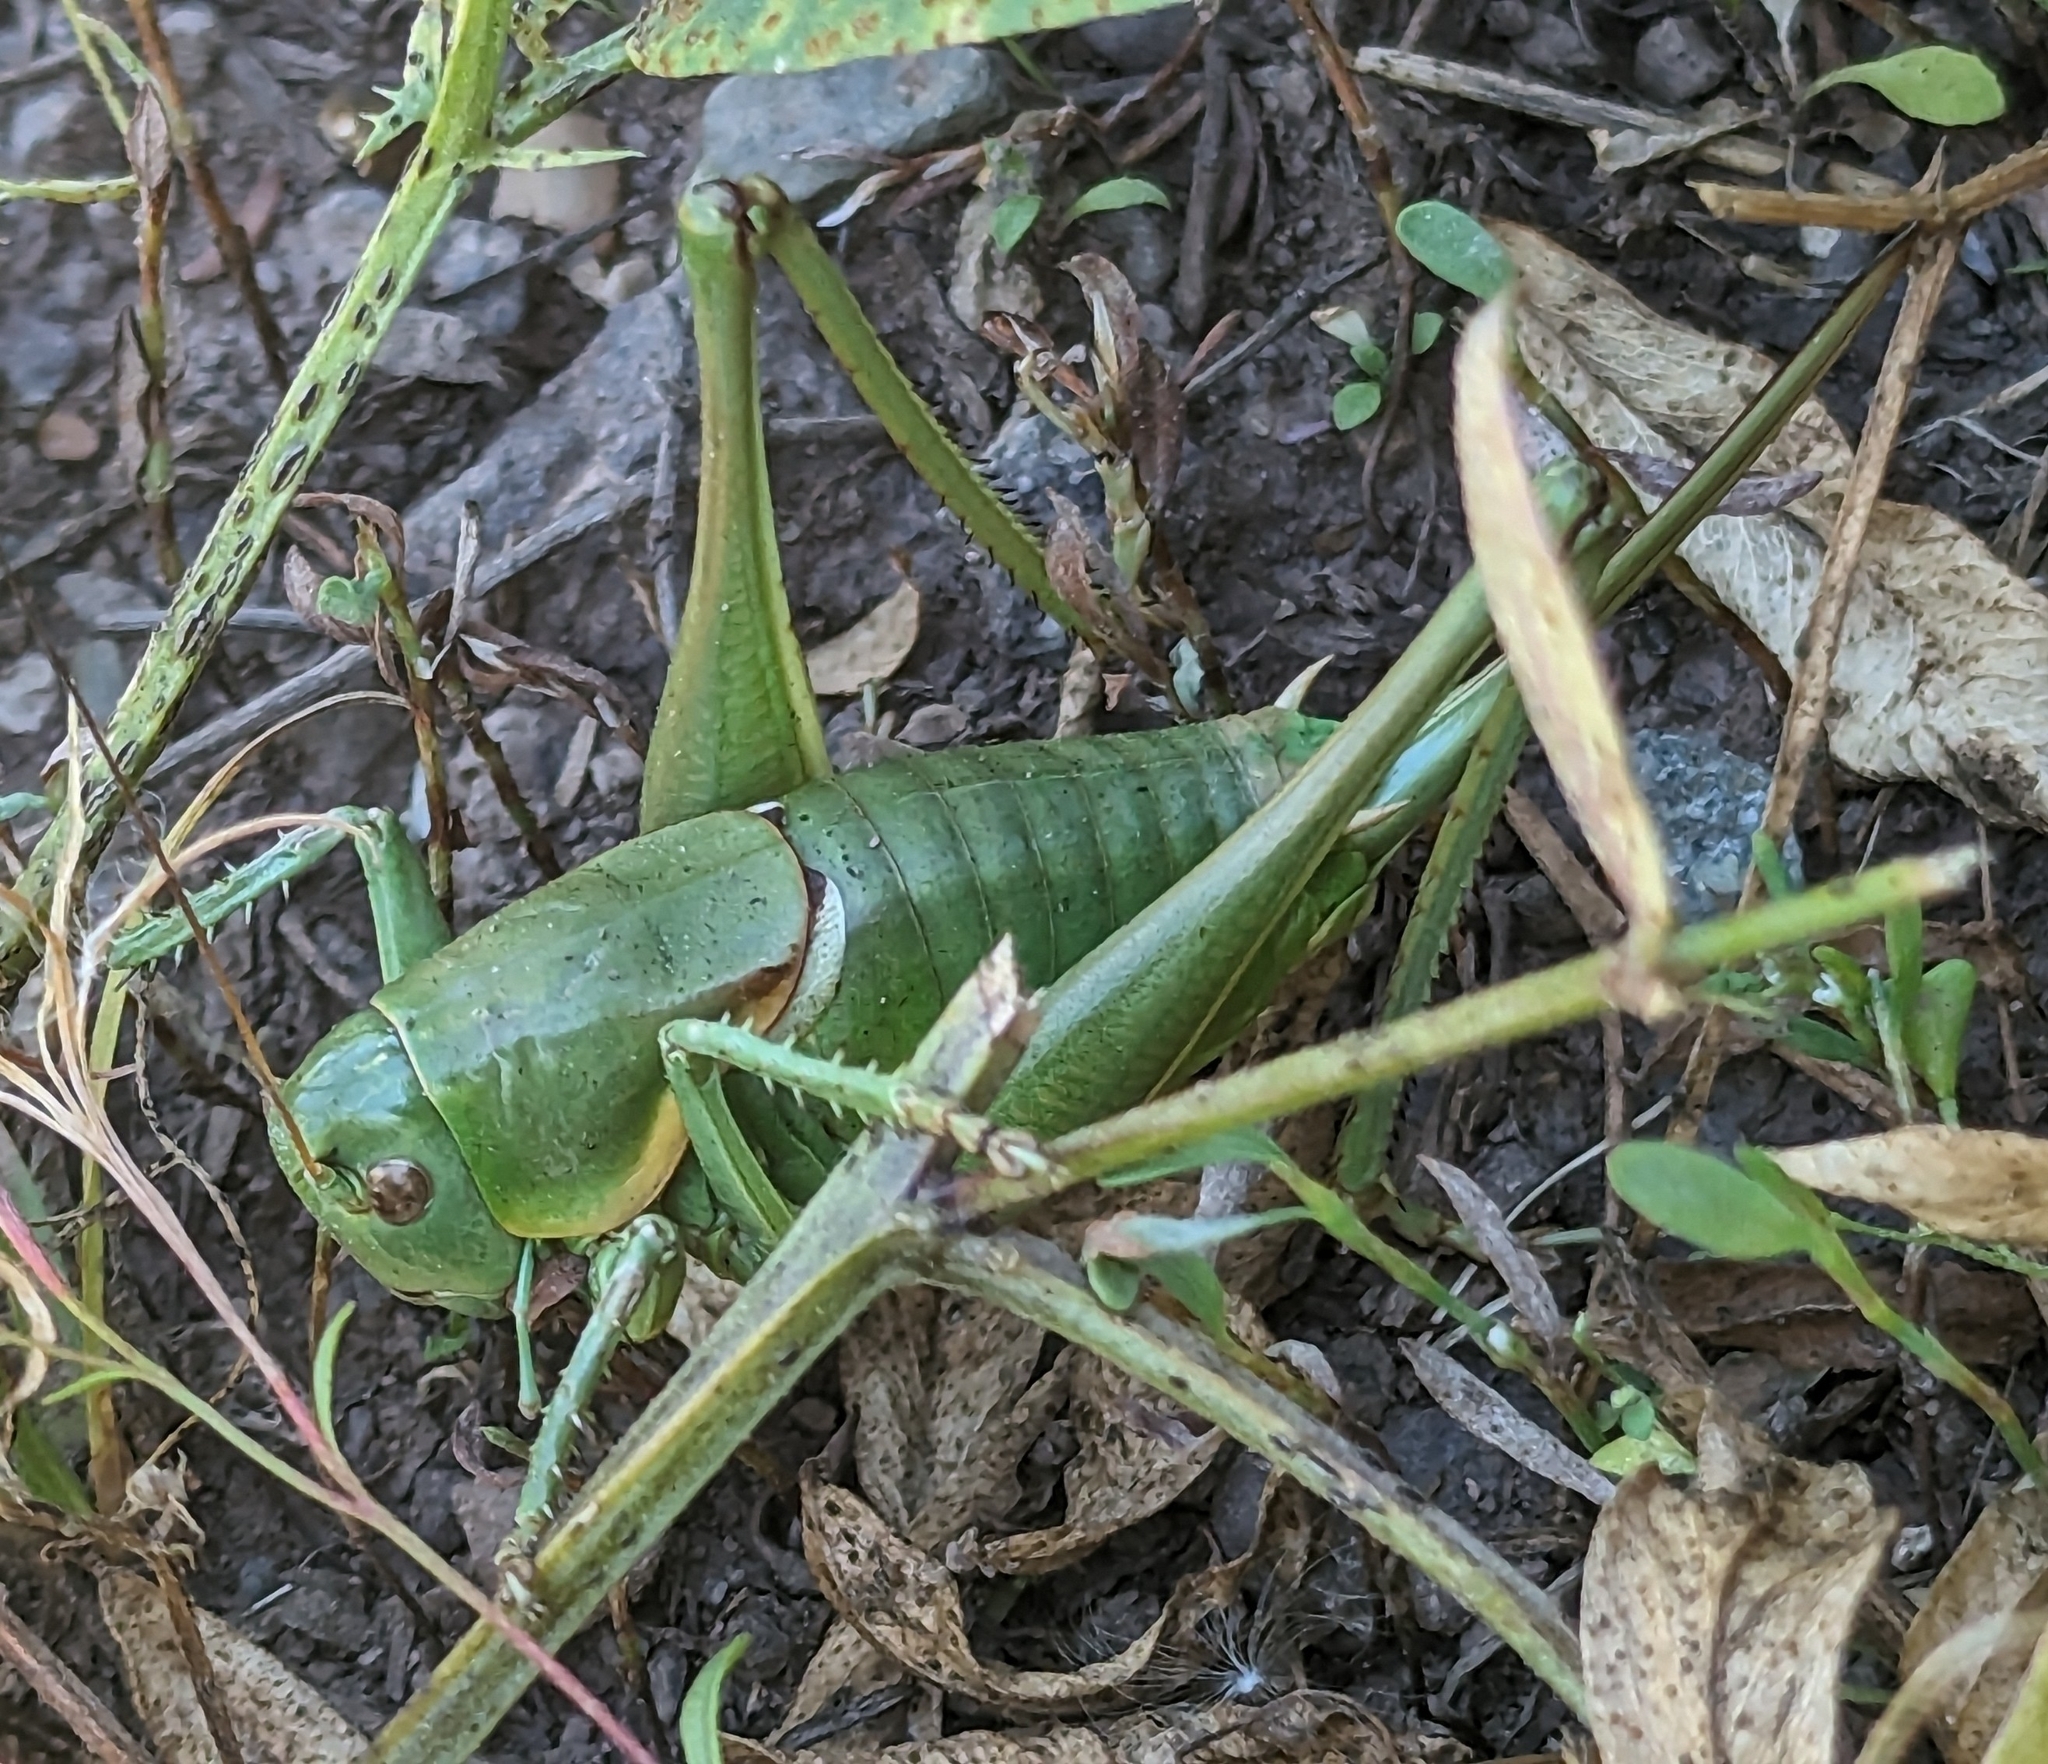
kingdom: Animalia
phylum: Arthropoda
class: Insecta
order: Orthoptera
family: Tettigoniidae
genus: Anabrus
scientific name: Anabrus longipes
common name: Long-legged anabrus
